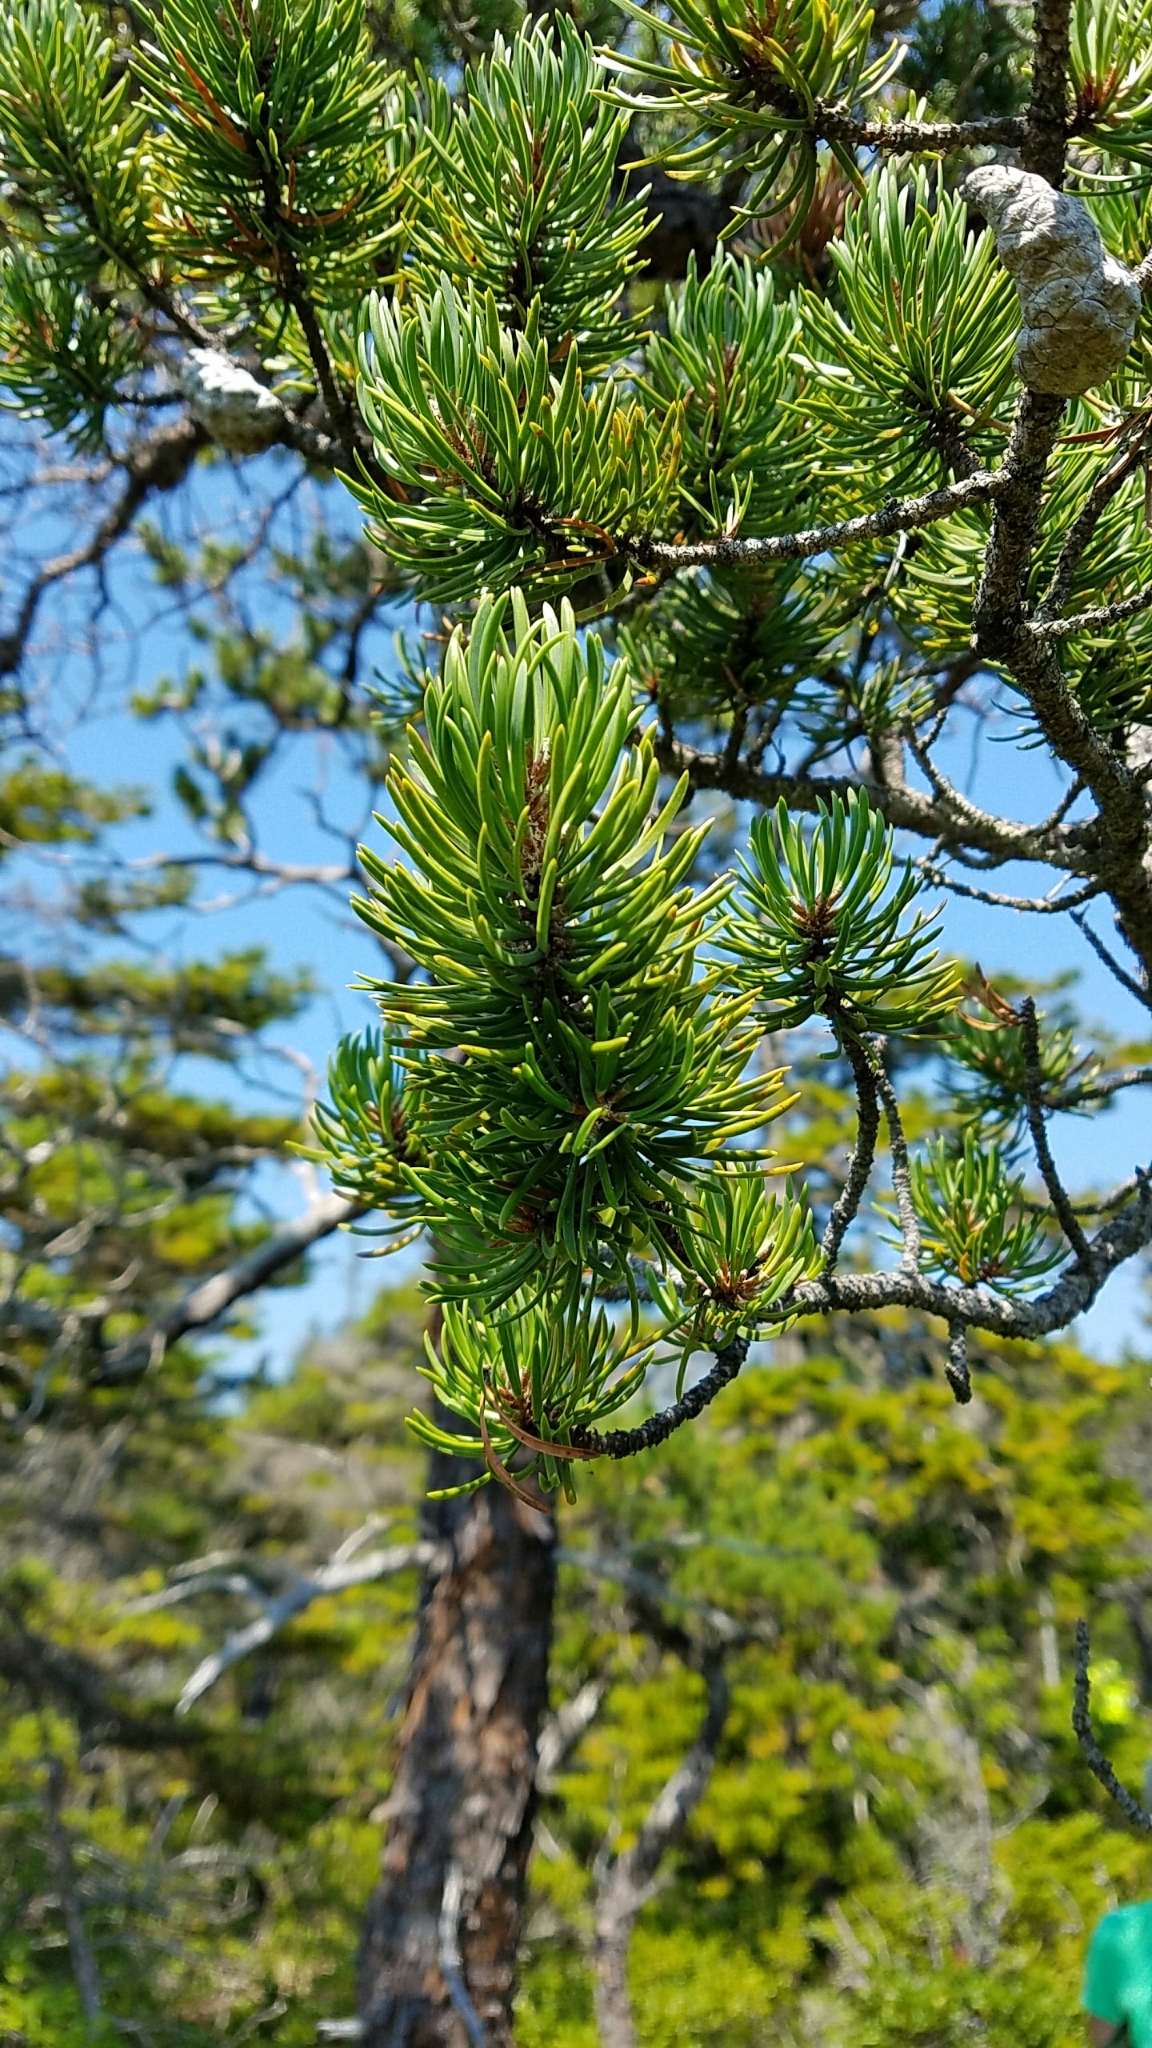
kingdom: Plantae
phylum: Tracheophyta
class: Pinopsida
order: Pinales
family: Pinaceae
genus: Pinus
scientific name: Pinus banksiana
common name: Jack pine
